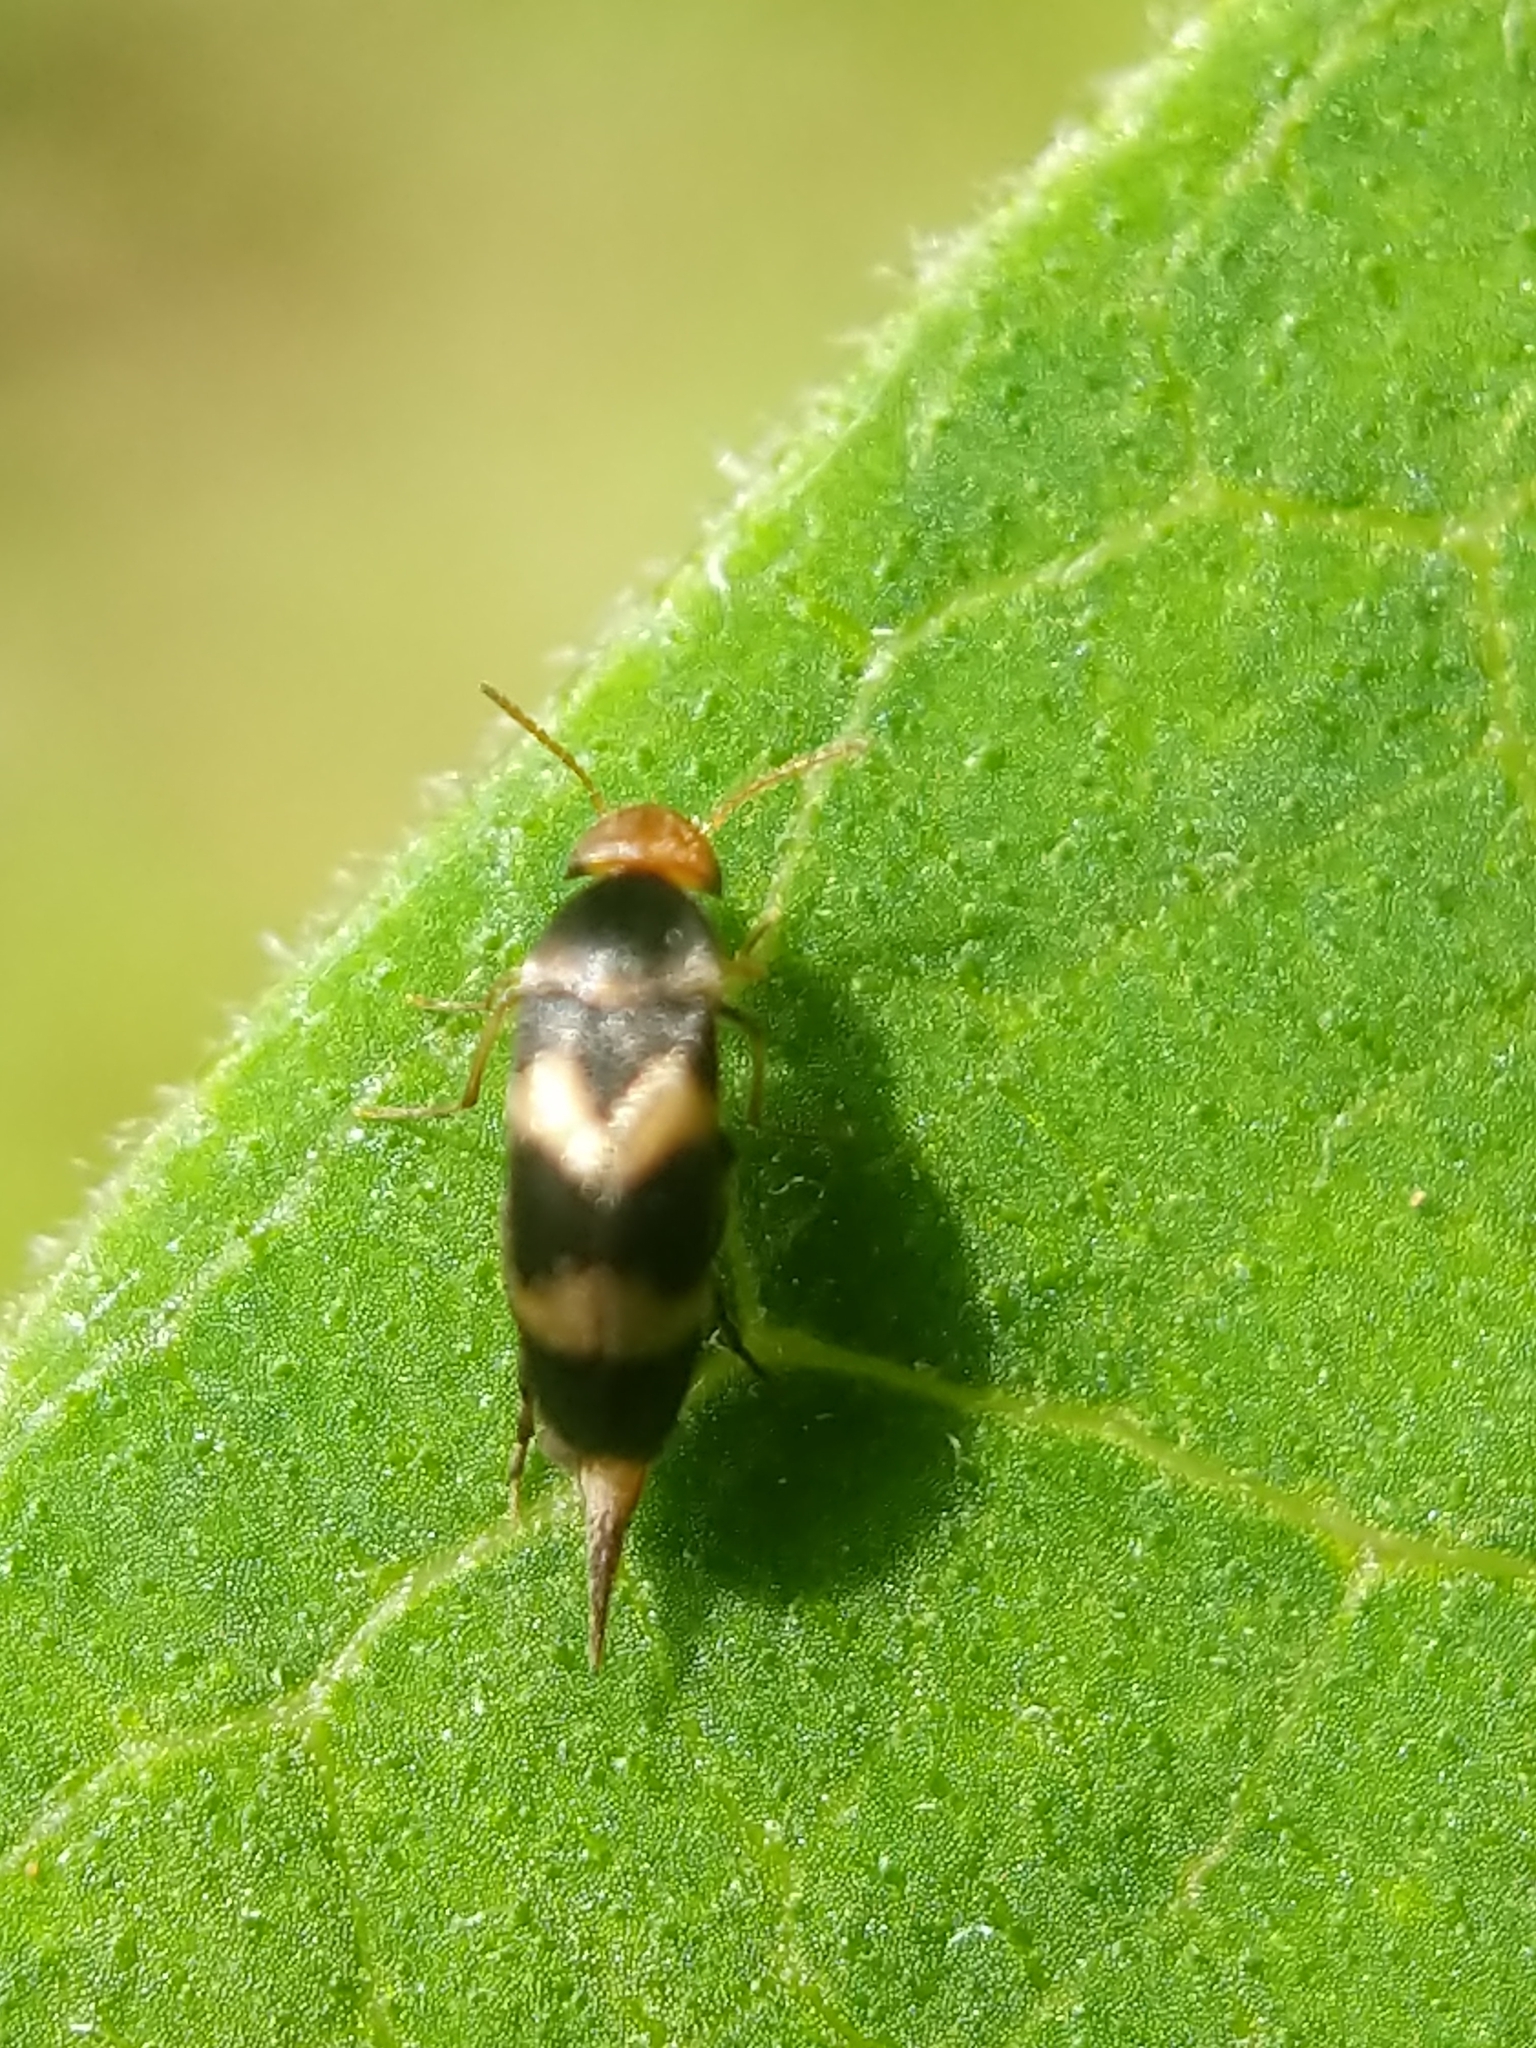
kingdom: Animalia
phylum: Arthropoda
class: Insecta
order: Coleoptera
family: Mordellidae
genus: Mordellistena
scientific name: Mordellistena trifasciata
